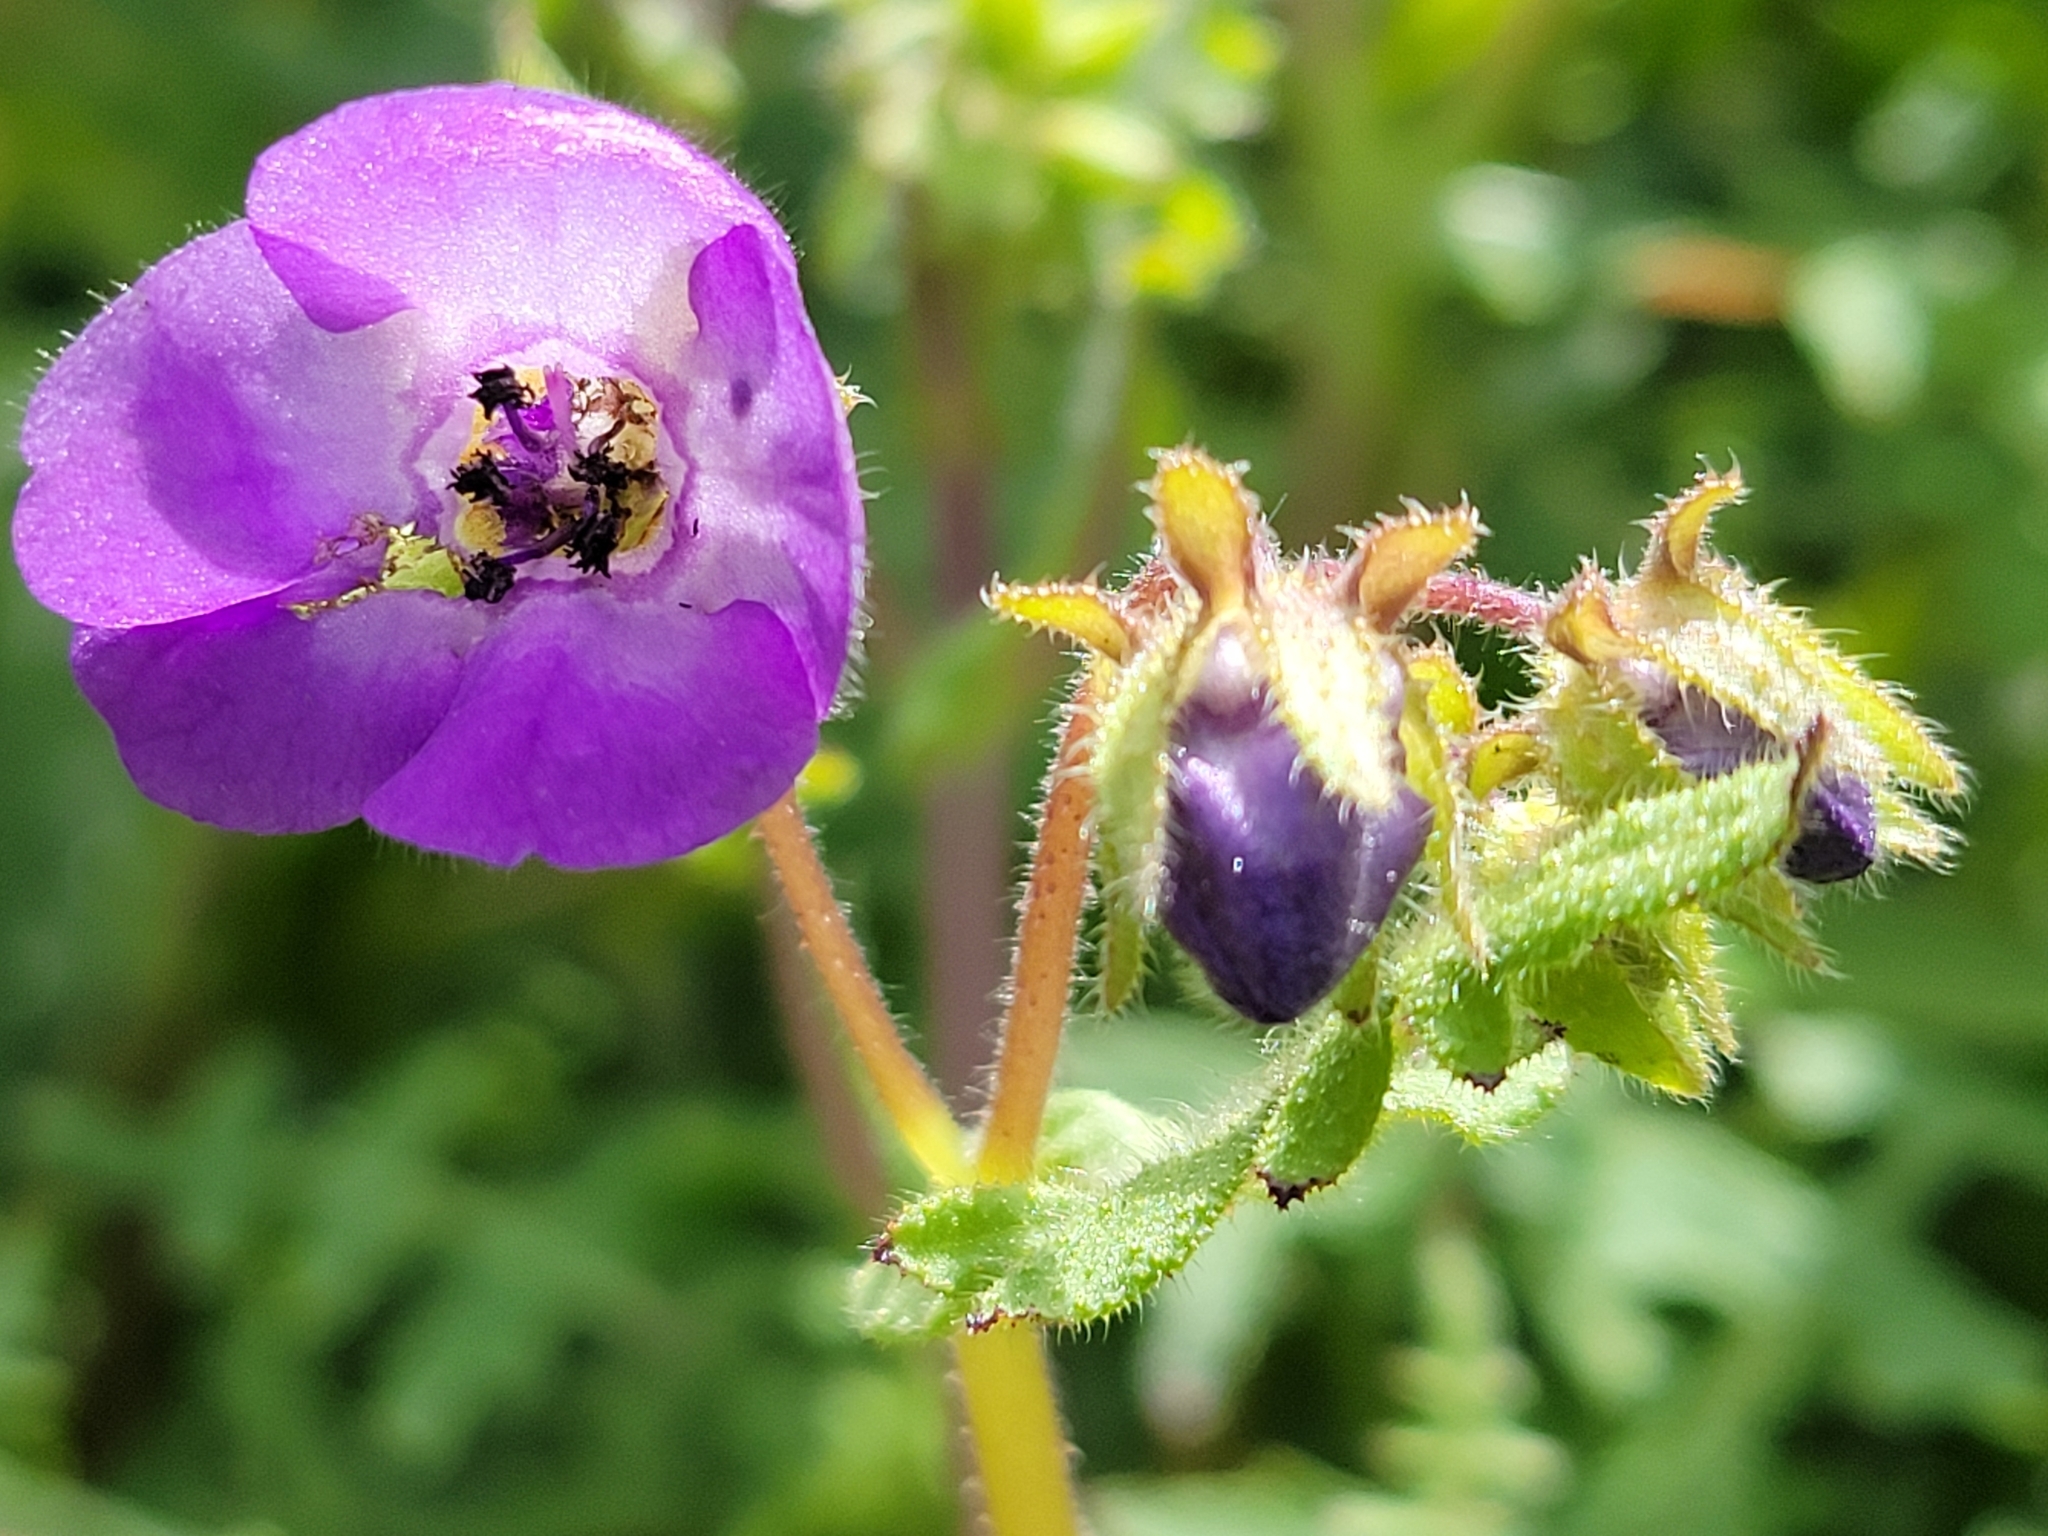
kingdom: Plantae
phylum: Tracheophyta
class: Magnoliopsida
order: Boraginales
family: Hydrophyllaceae
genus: Pholistoma
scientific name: Pholistoma auritum
